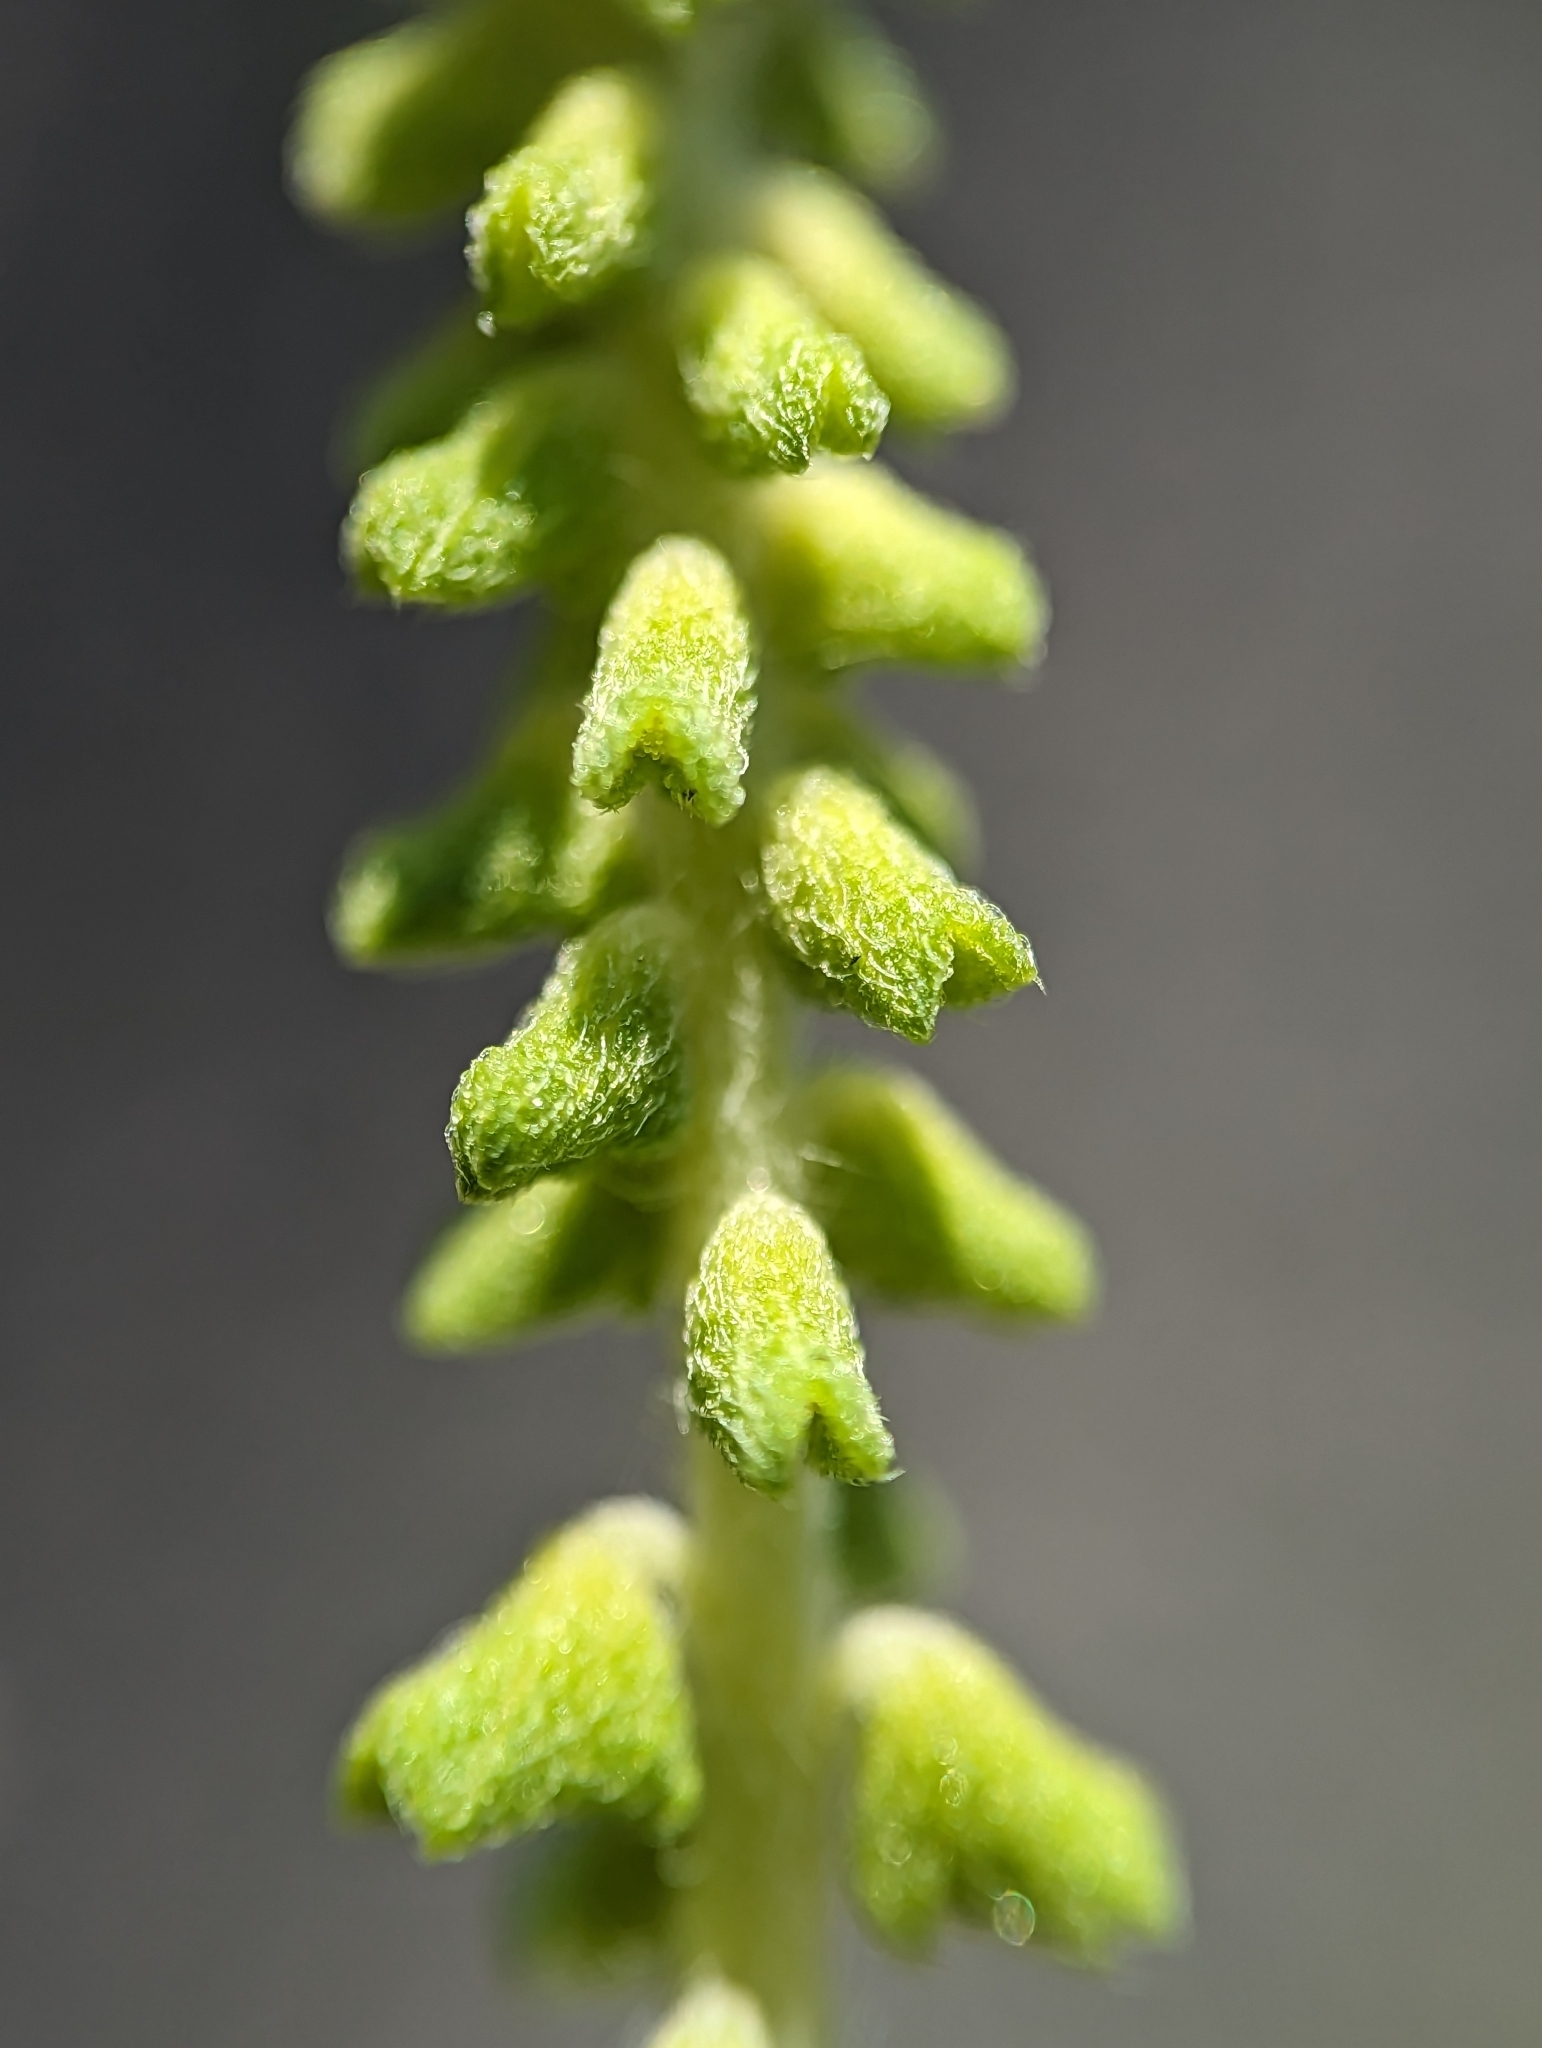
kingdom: Plantae
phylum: Tracheophyta
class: Magnoliopsida
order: Asterales
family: Asteraceae
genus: Ambrosia
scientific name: Ambrosia psilostachya
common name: Perennial ragweed
